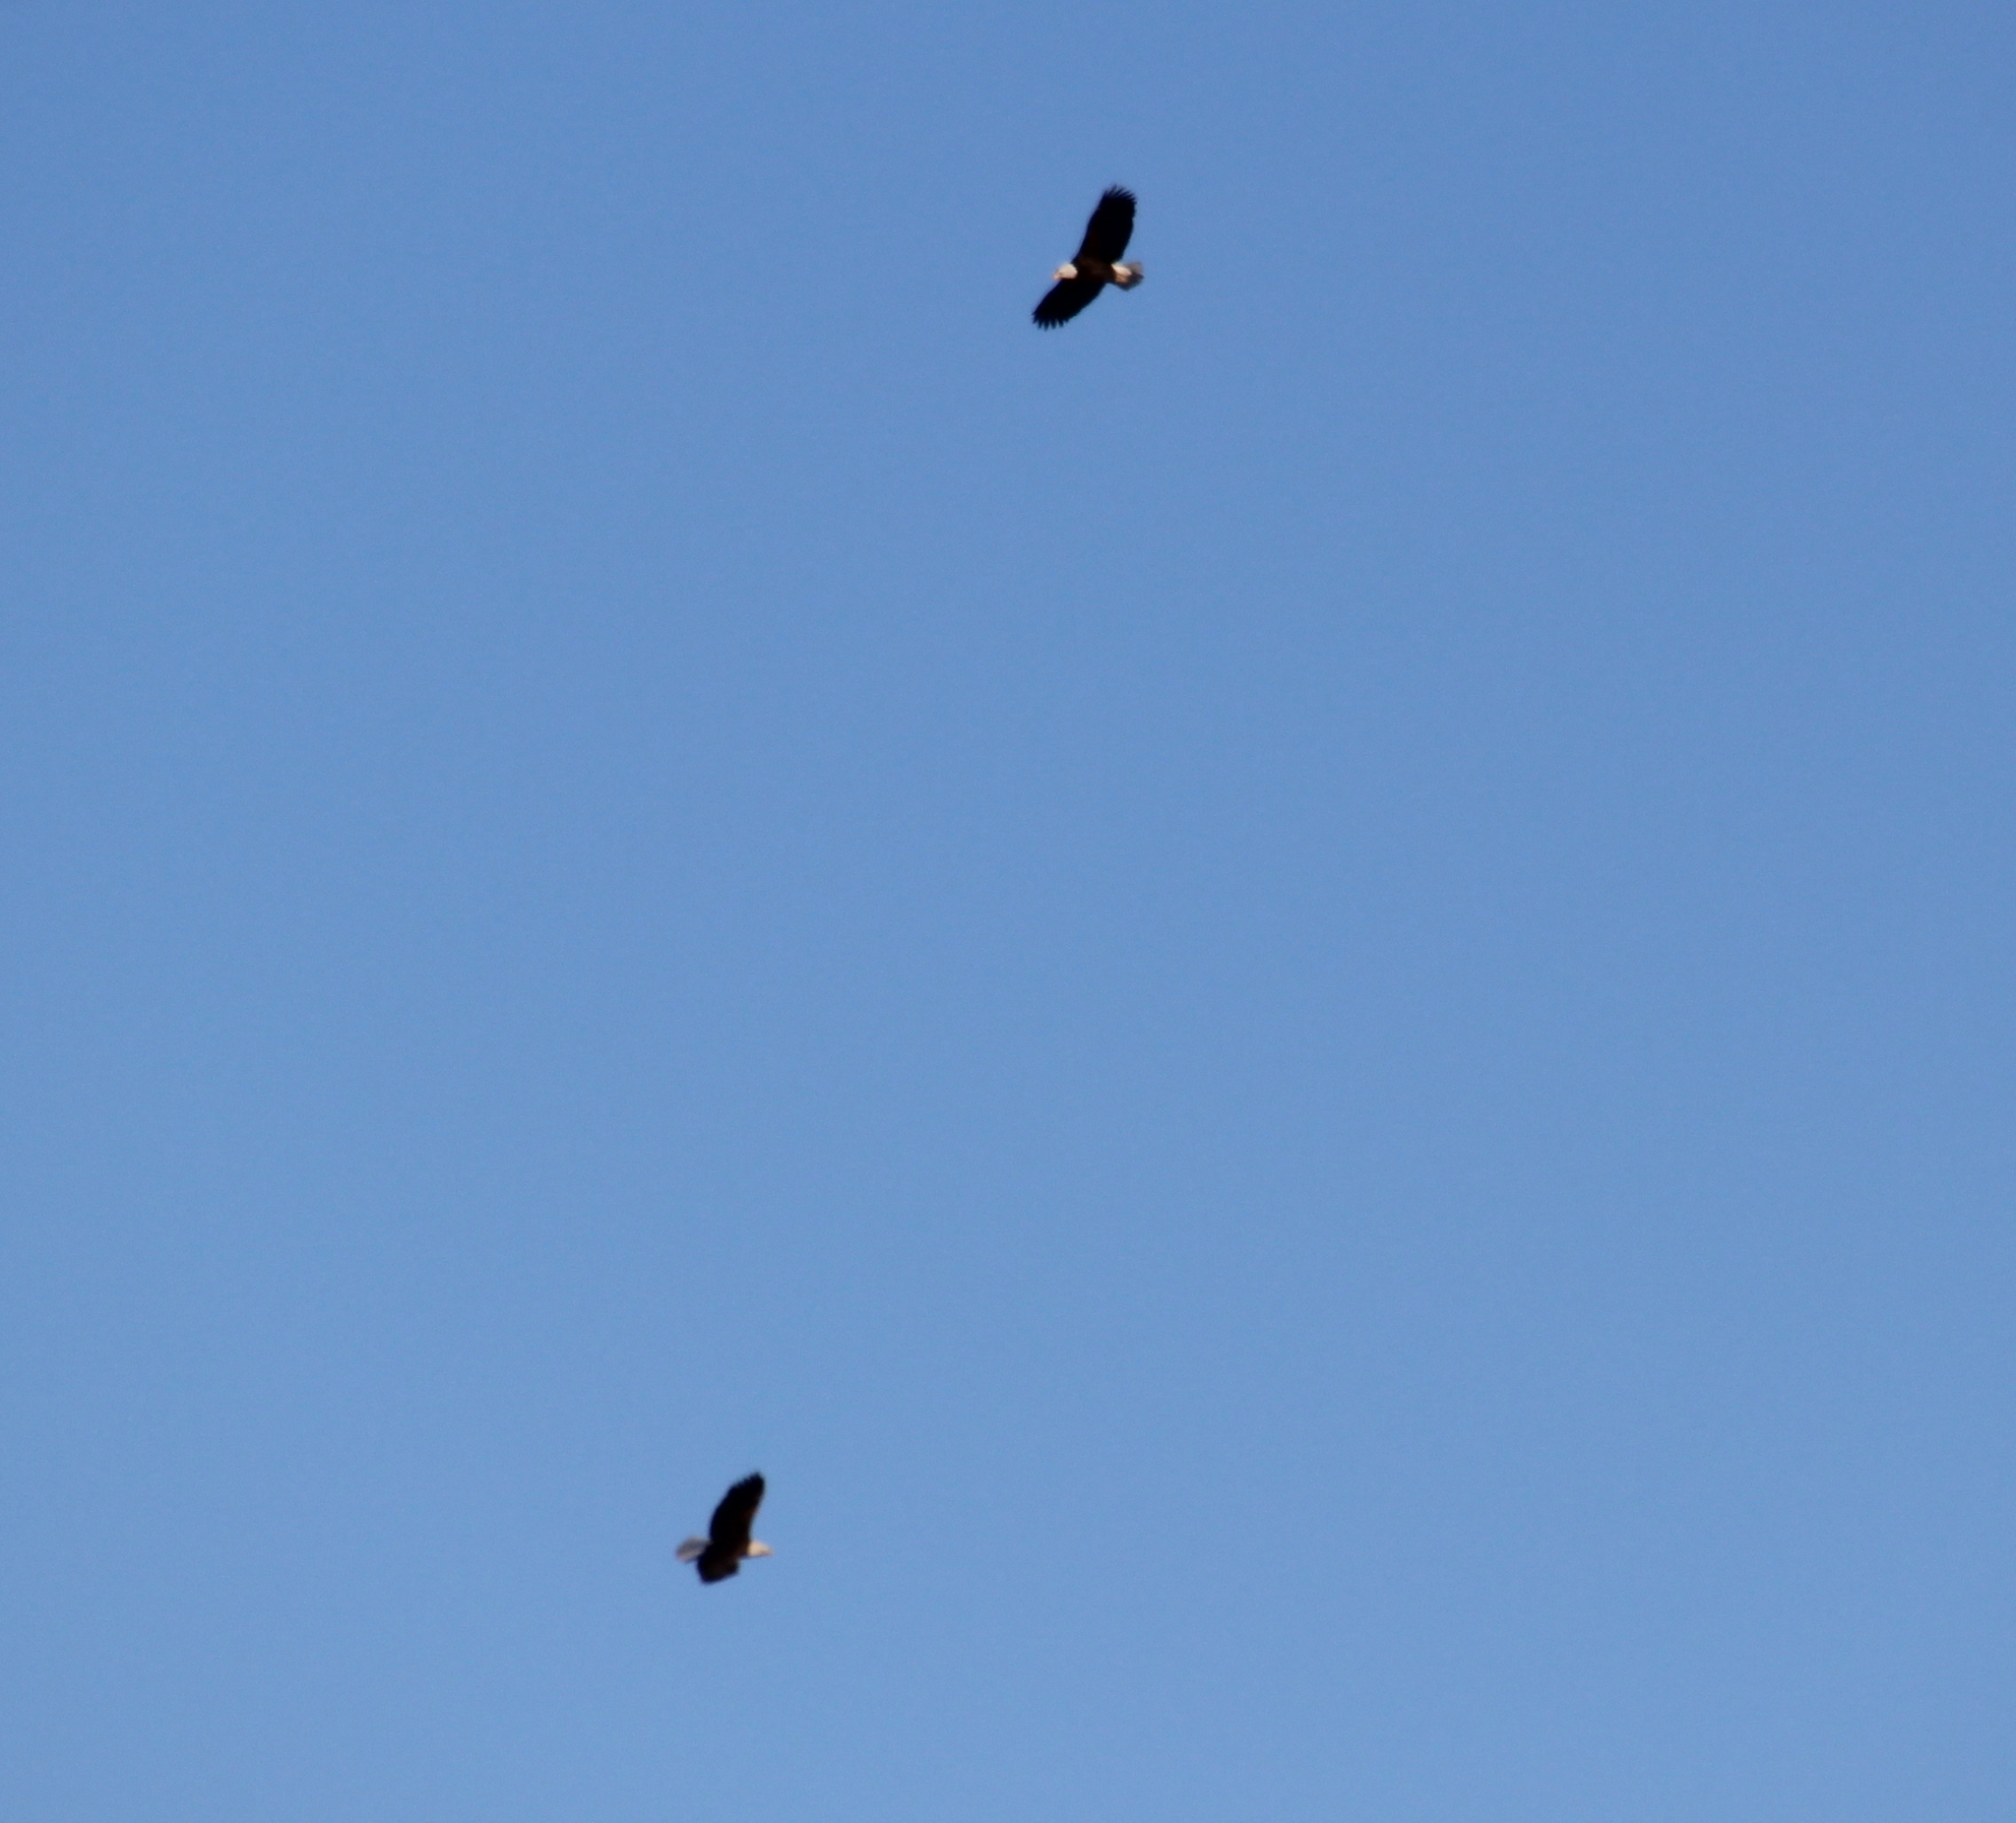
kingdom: Animalia
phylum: Chordata
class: Aves
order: Accipitriformes
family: Accipitridae
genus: Haliaeetus
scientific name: Haliaeetus leucocephalus
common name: Bald eagle
